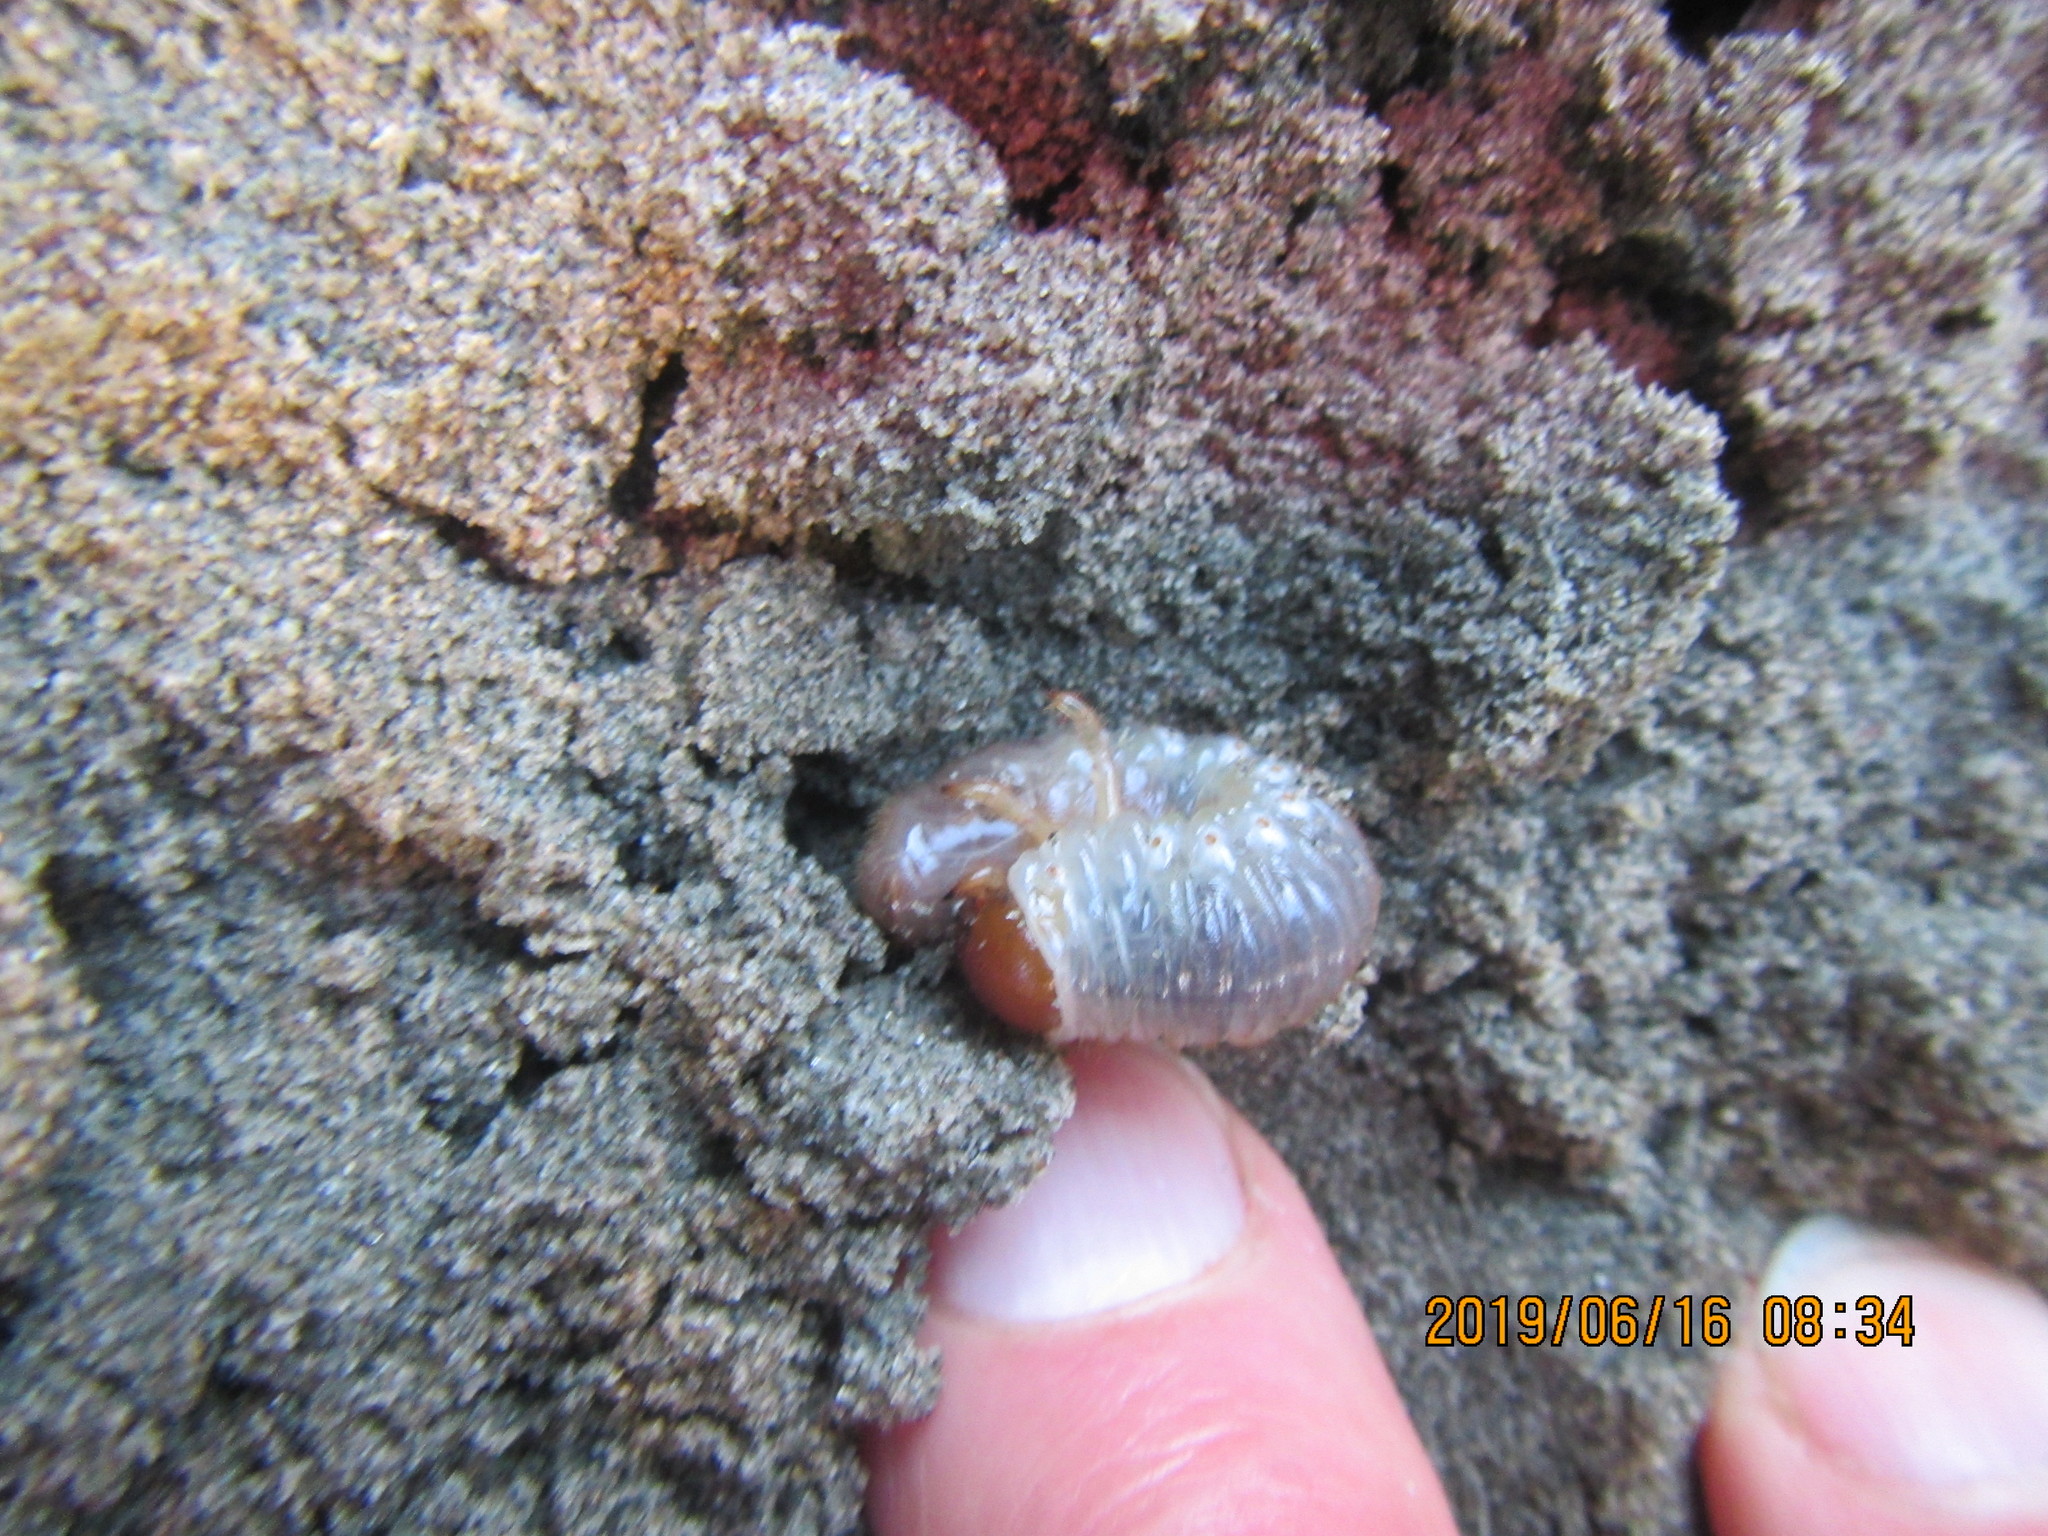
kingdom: Animalia
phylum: Arthropoda
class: Insecta
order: Coleoptera
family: Scarabaeidae
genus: Pericoptus
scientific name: Pericoptus truncatus
